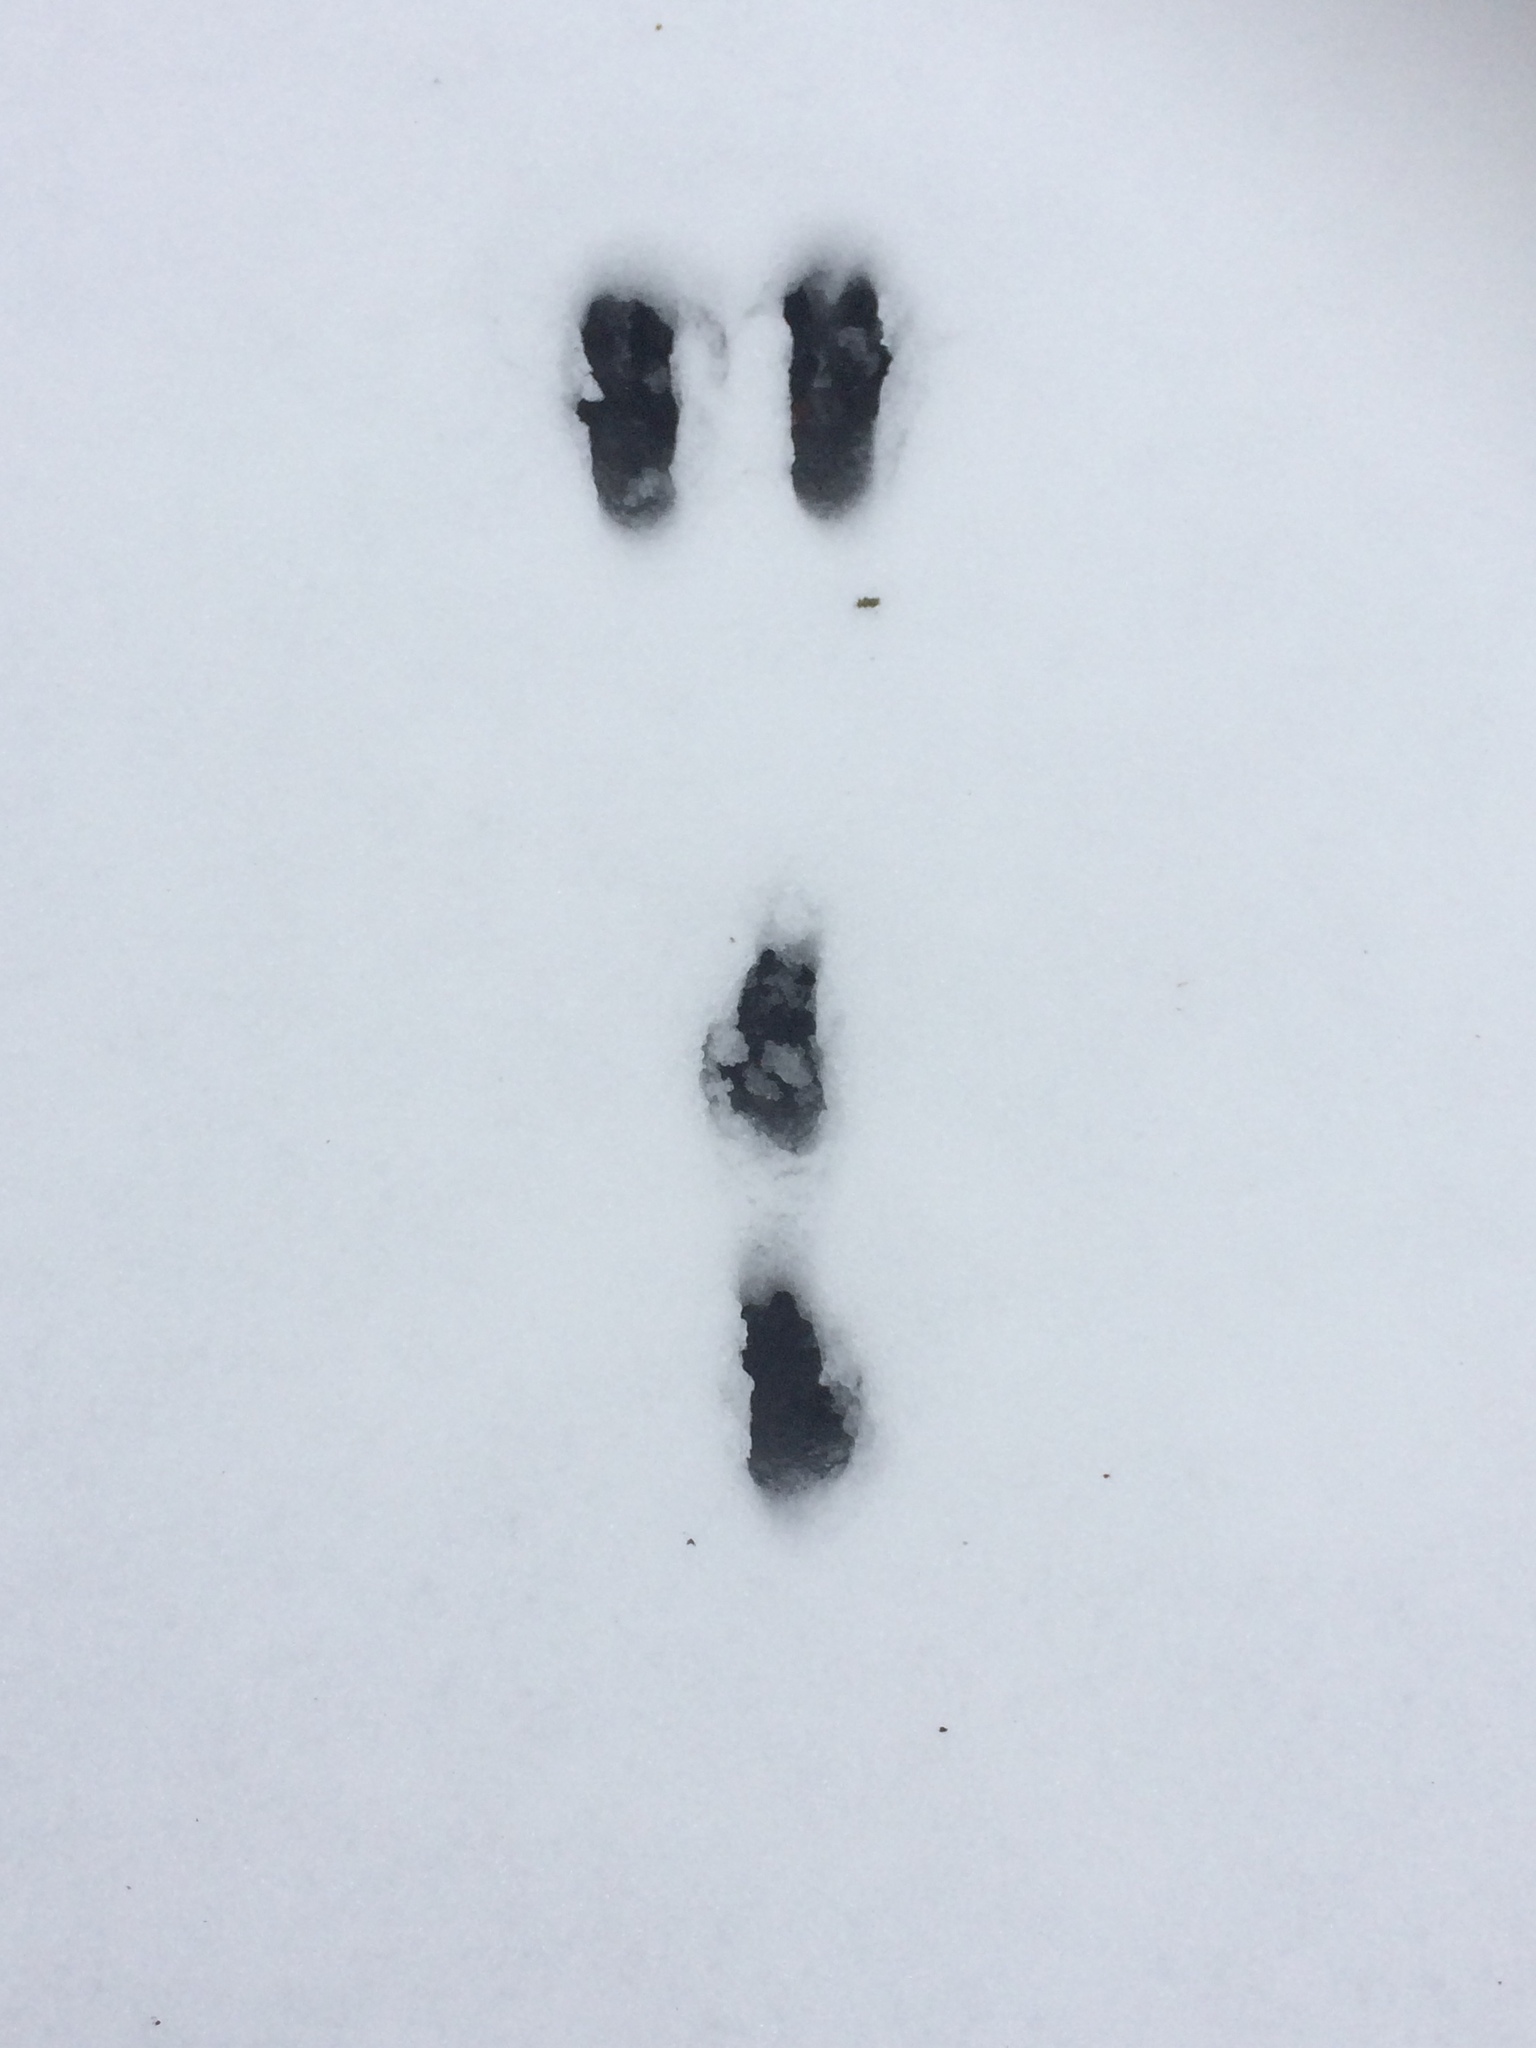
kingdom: Animalia
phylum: Chordata
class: Mammalia
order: Lagomorpha
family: Leporidae
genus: Sylvilagus
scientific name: Sylvilagus floridanus
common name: Eastern cottontail
